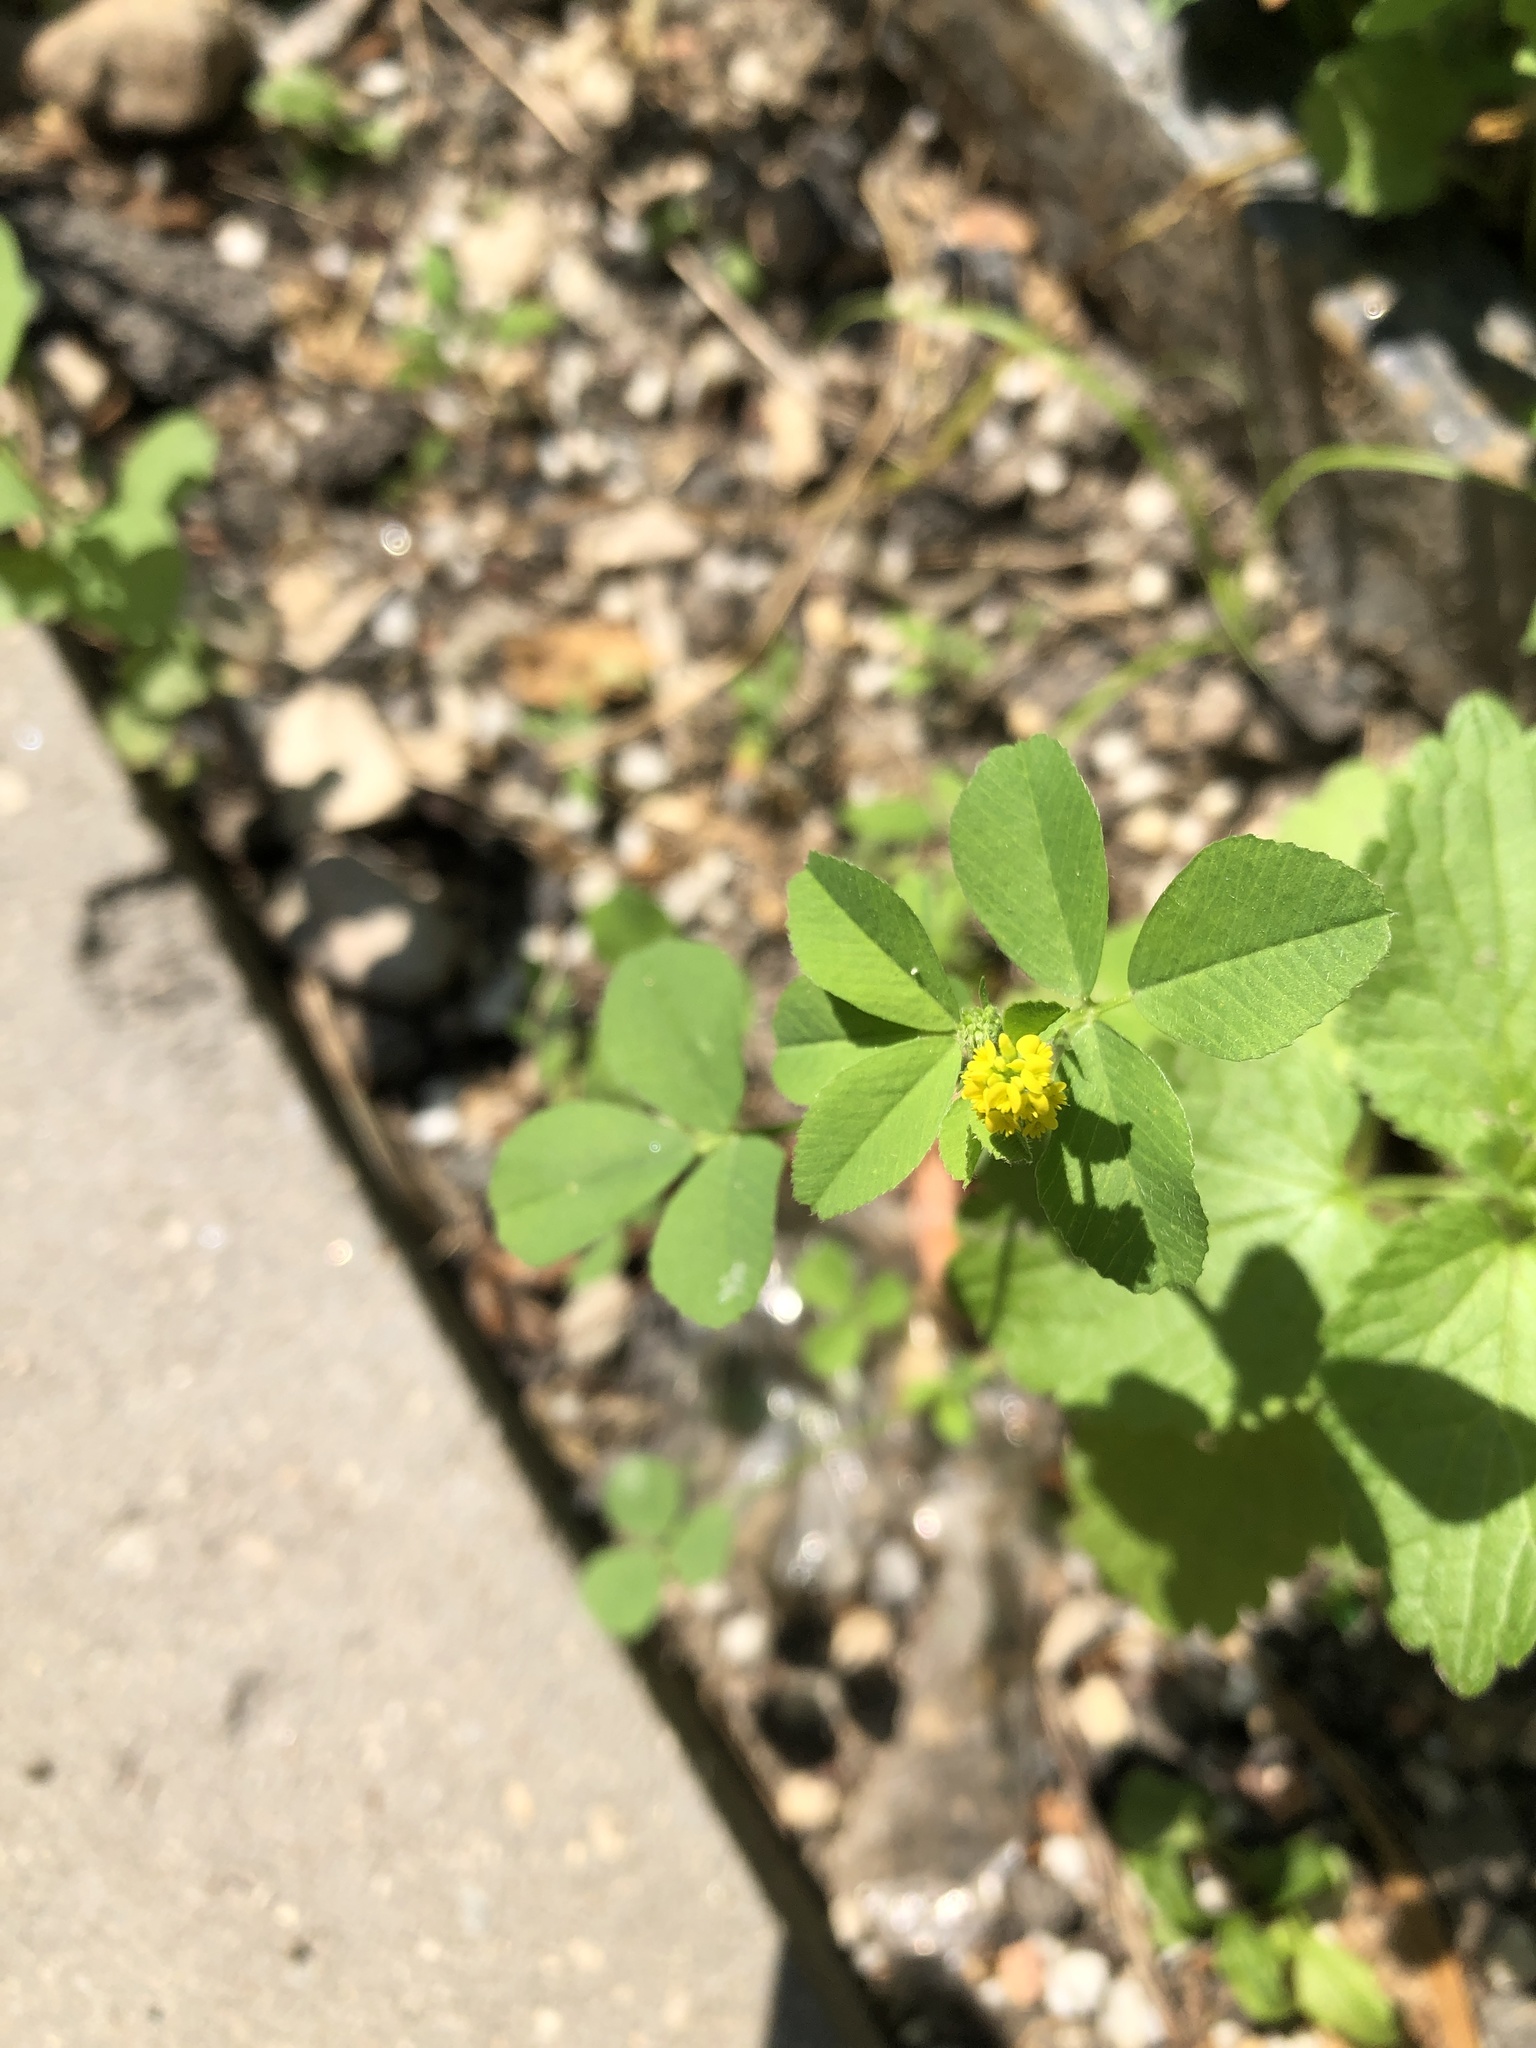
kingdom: Plantae
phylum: Tracheophyta
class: Magnoliopsida
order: Fabales
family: Fabaceae
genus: Medicago
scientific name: Medicago lupulina
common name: Black medick
